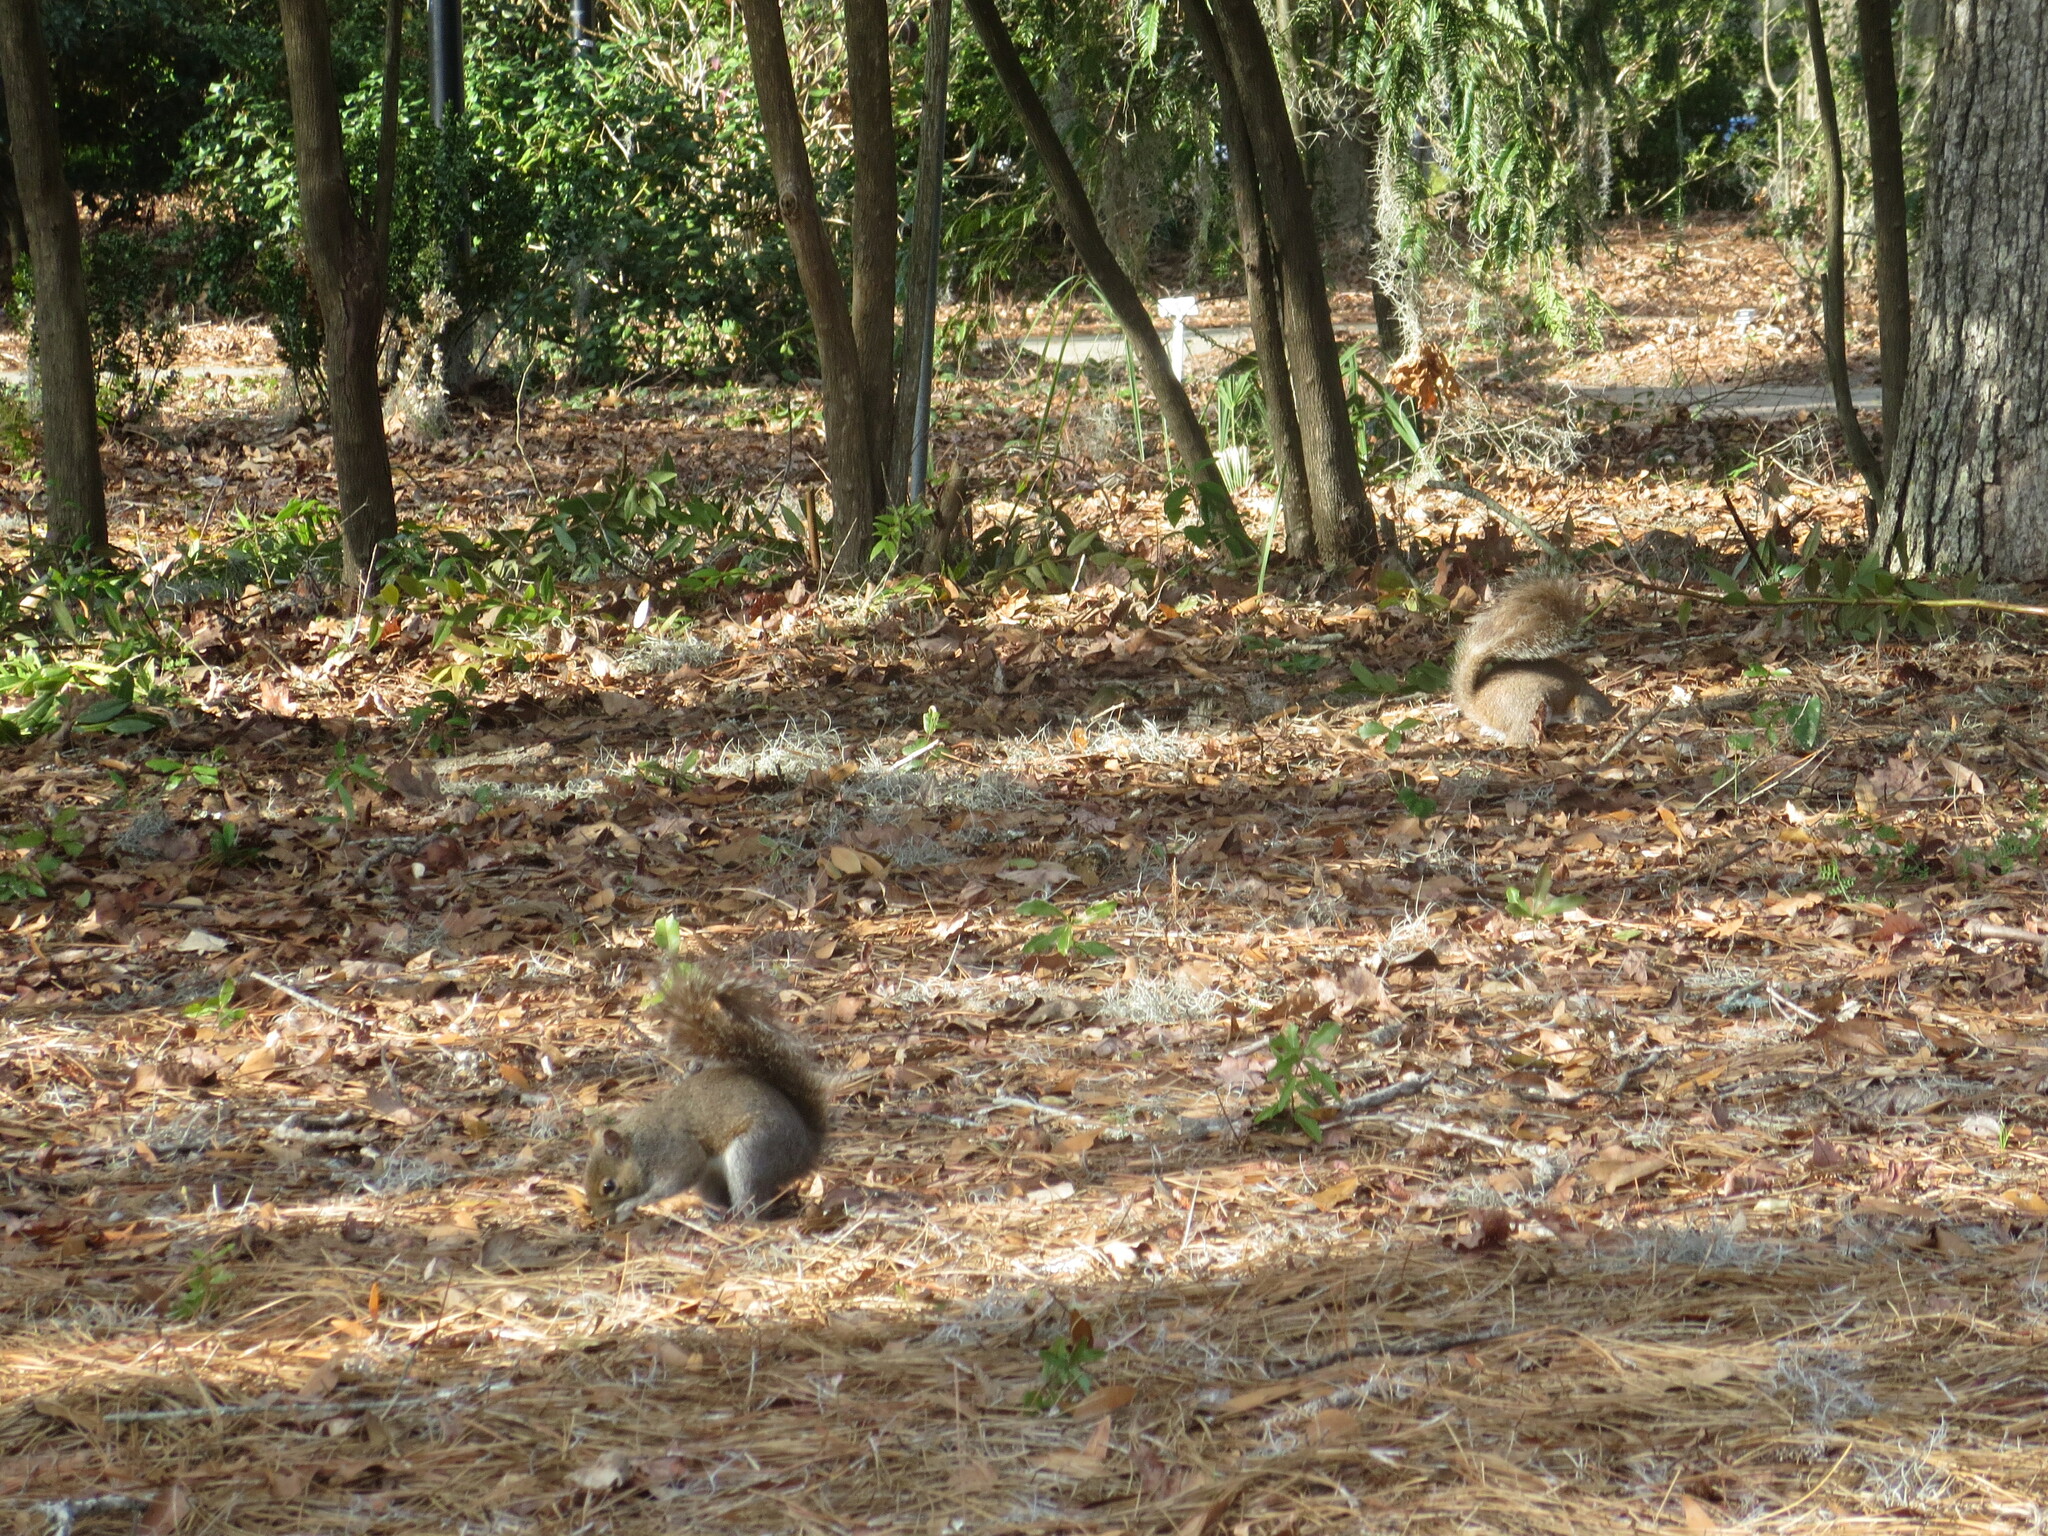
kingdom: Animalia
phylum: Chordata
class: Mammalia
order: Rodentia
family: Sciuridae
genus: Sciurus
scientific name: Sciurus carolinensis
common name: Eastern gray squirrel
